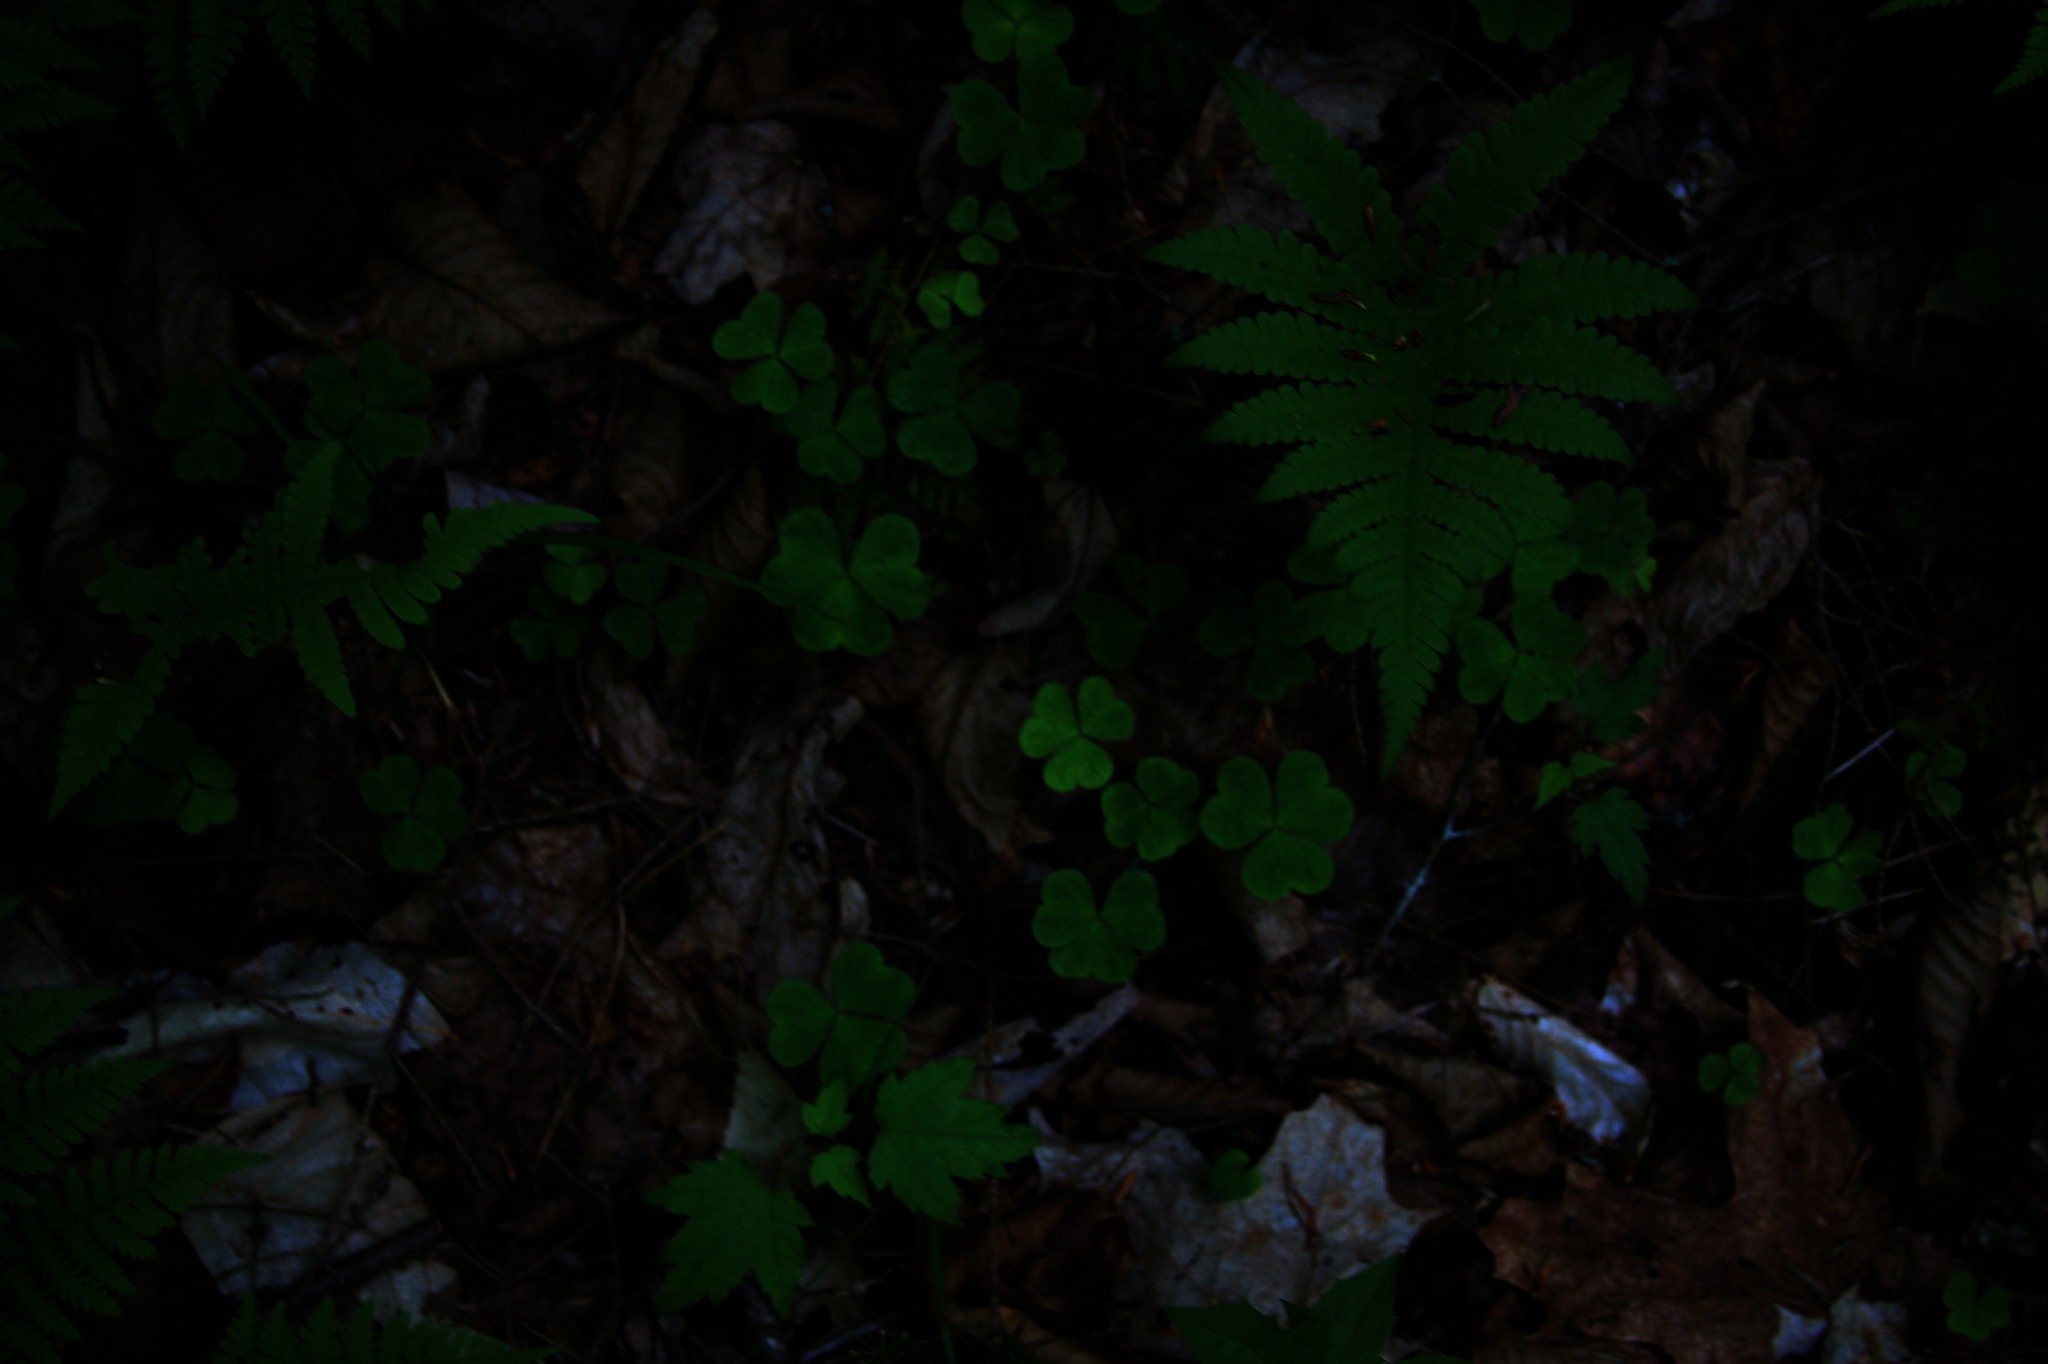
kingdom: Plantae
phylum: Tracheophyta
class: Magnoliopsida
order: Oxalidales
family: Oxalidaceae
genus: Oxalis
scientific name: Oxalis montana
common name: American wood-sorrel
